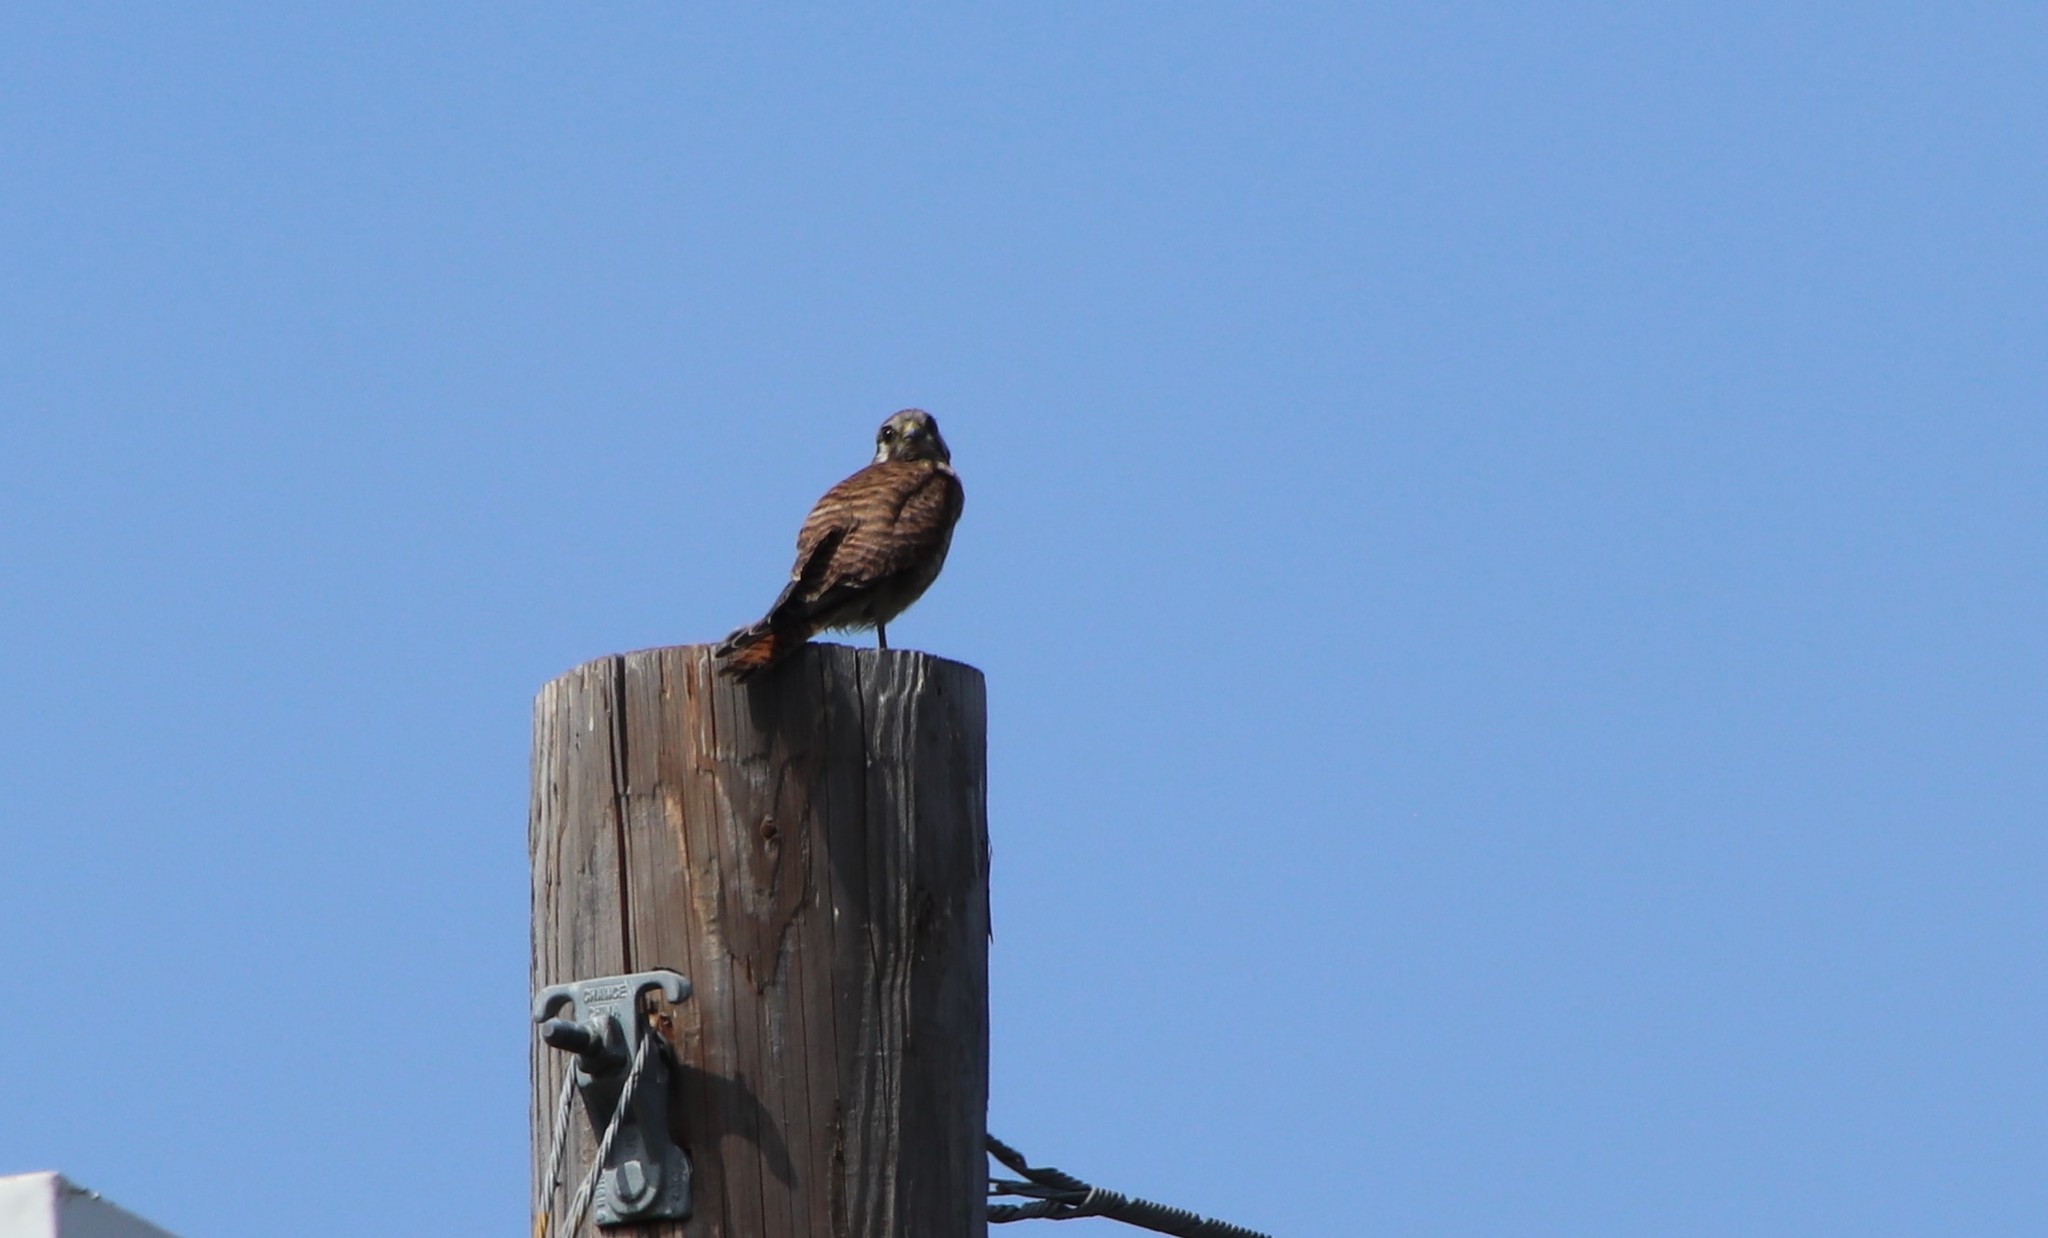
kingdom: Animalia
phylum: Chordata
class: Aves
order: Falconiformes
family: Falconidae
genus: Falco
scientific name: Falco sparverius
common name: American kestrel
